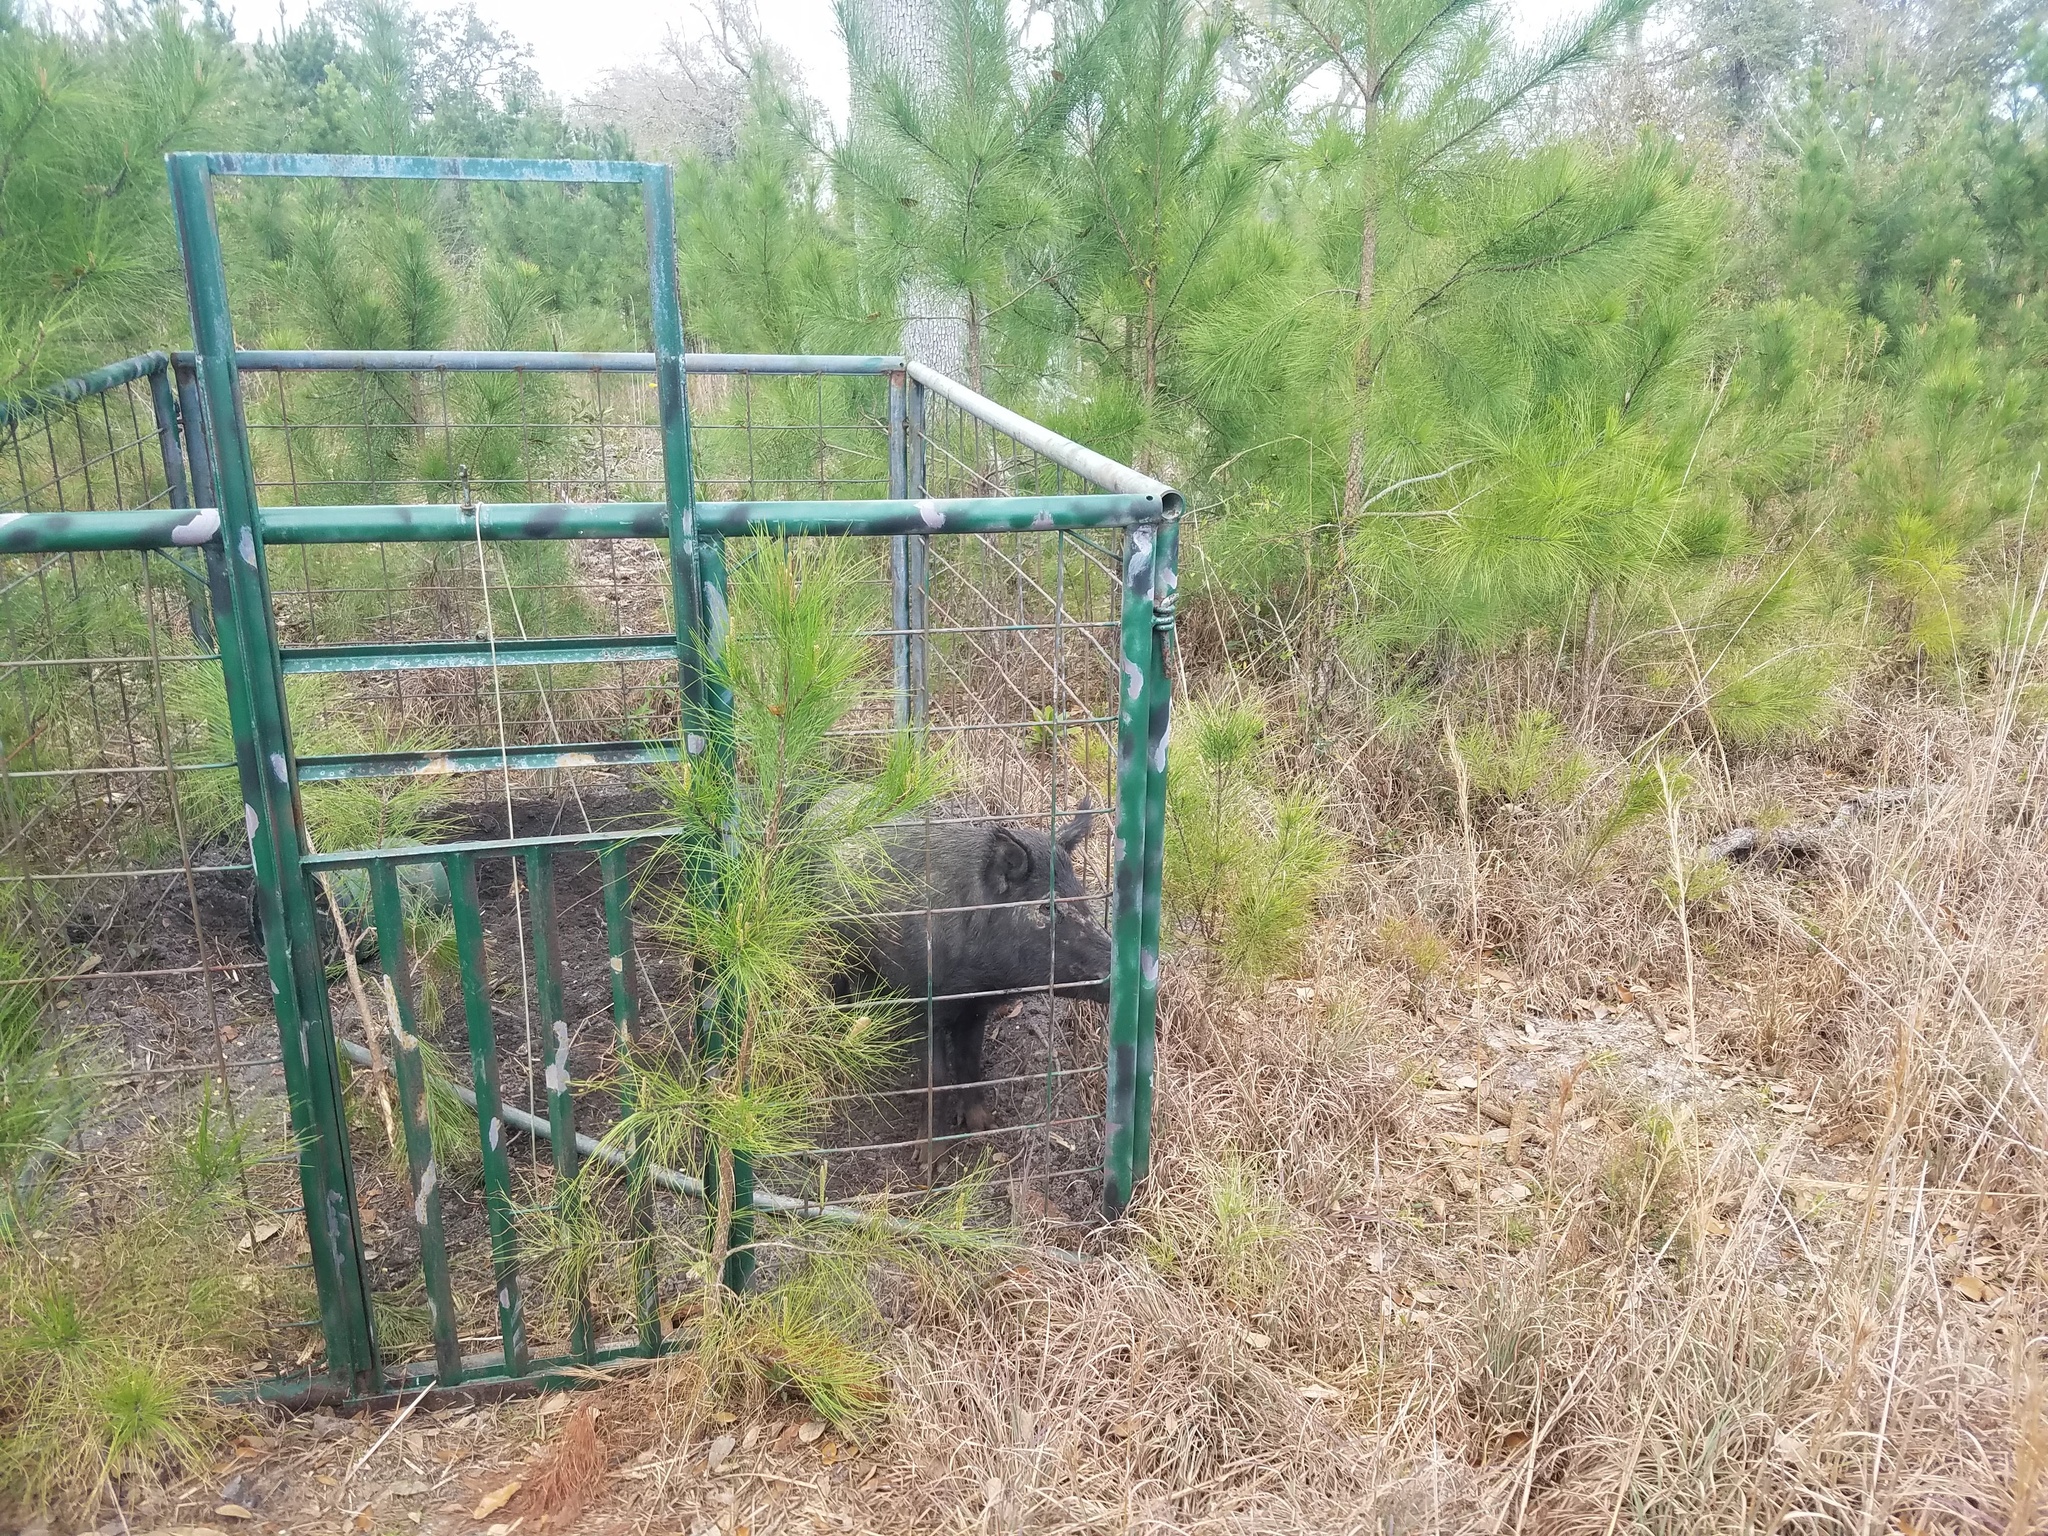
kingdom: Animalia
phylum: Chordata
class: Mammalia
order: Artiodactyla
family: Suidae
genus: Sus
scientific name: Sus scrofa
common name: Wild boar
